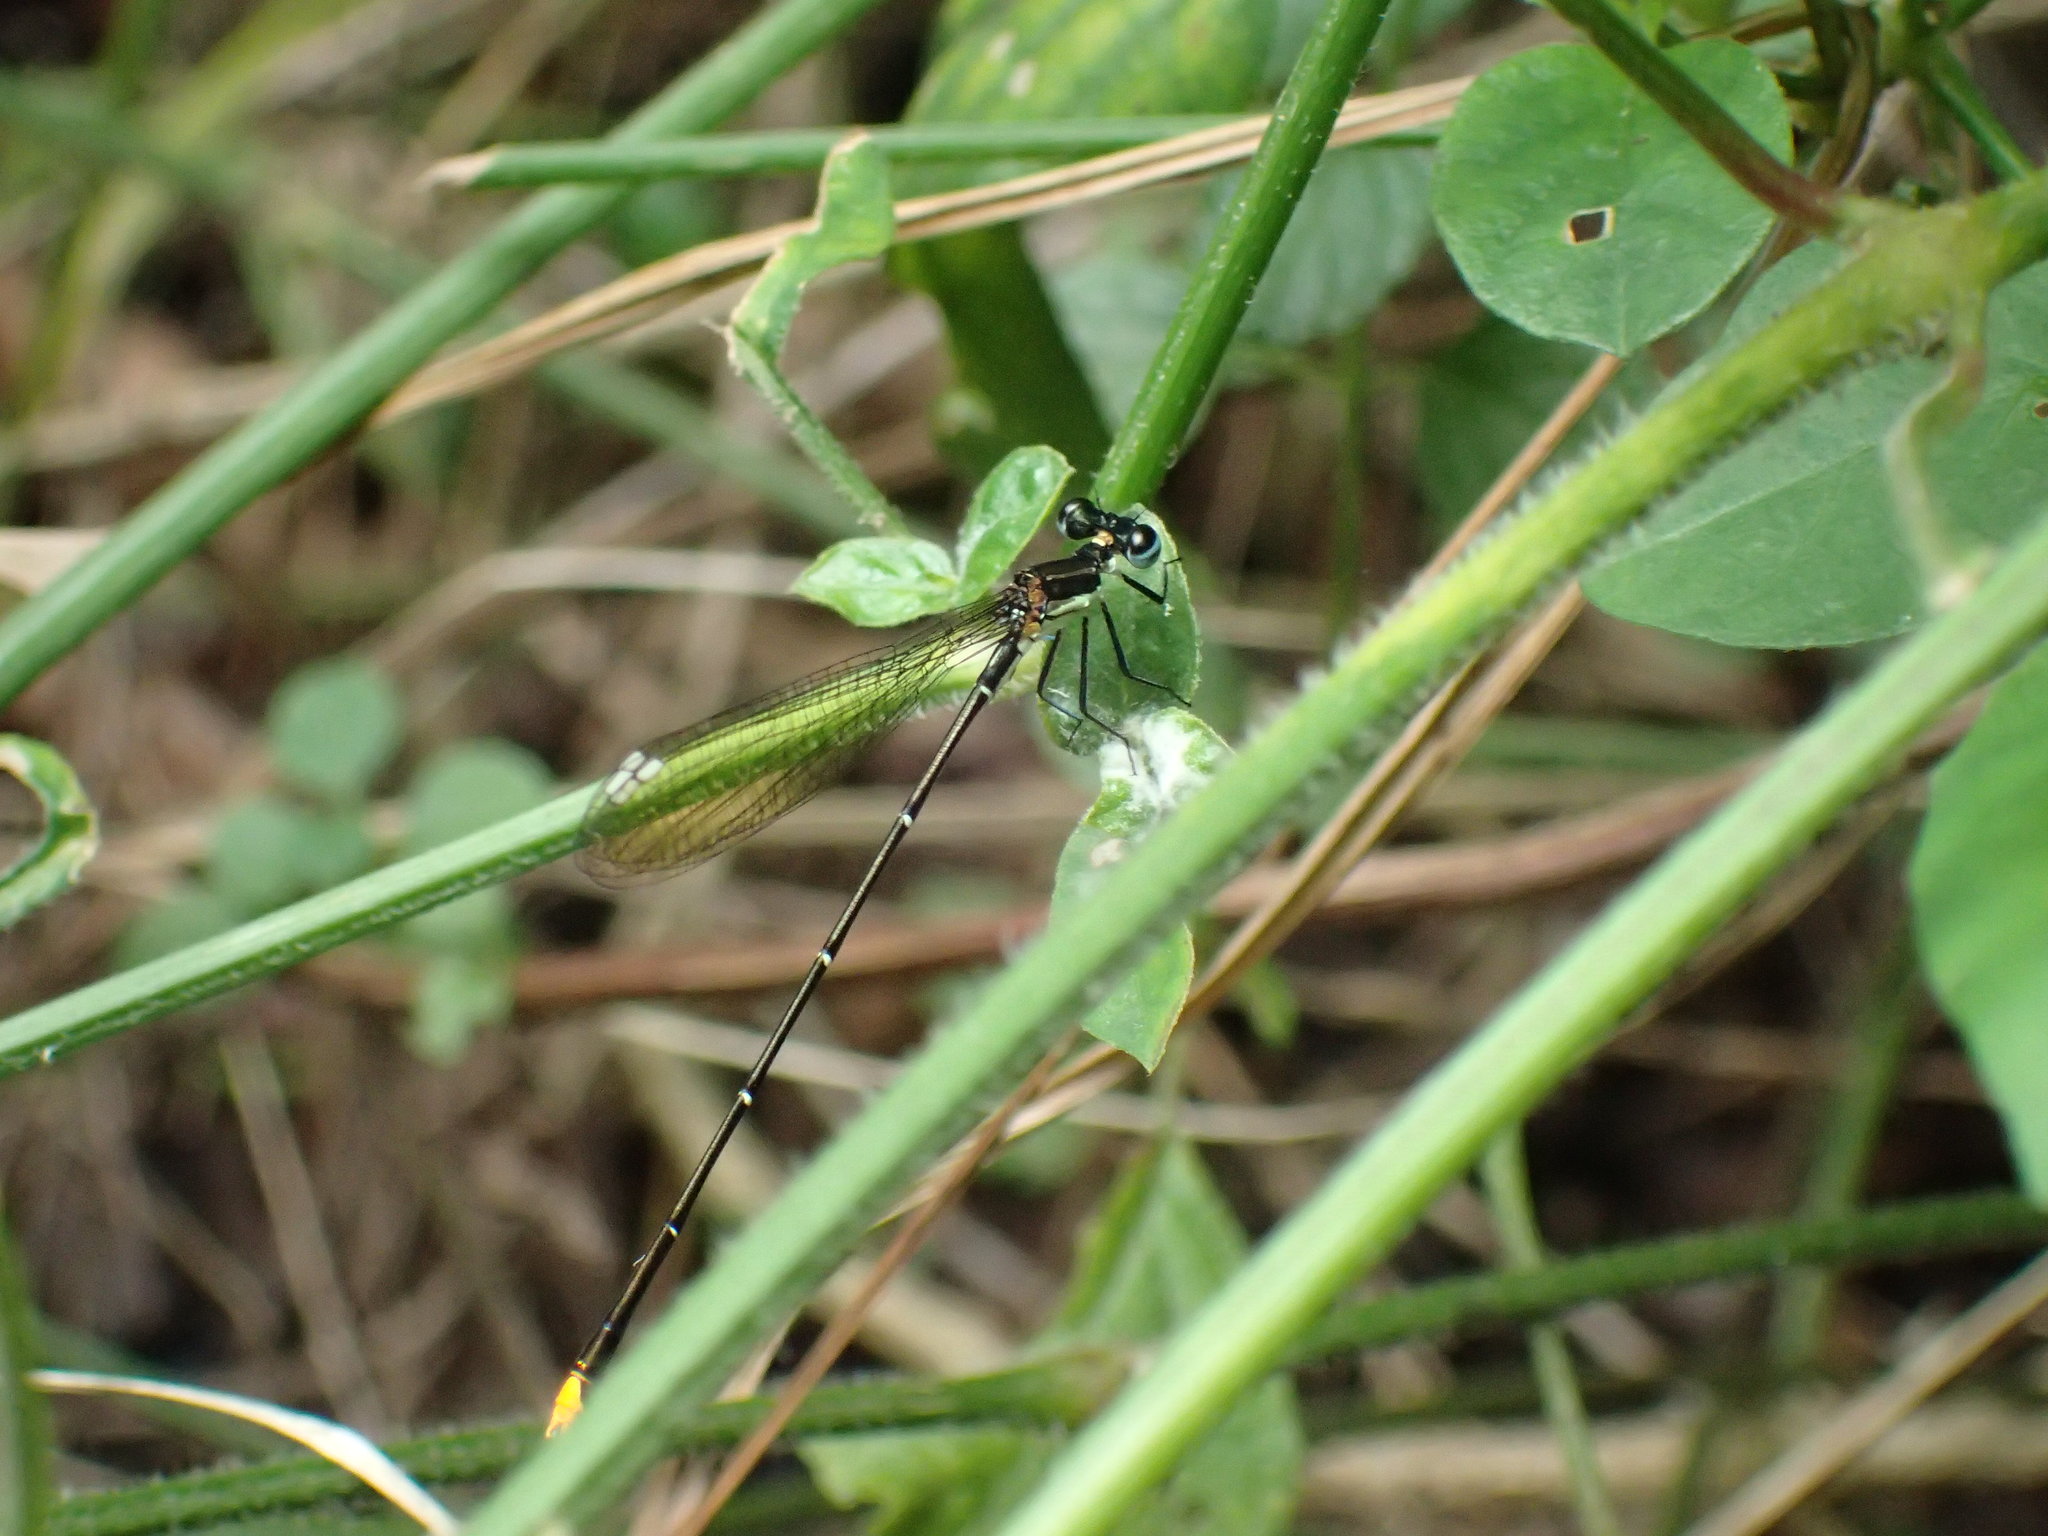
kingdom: Animalia
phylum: Arthropoda
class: Insecta
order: Odonata
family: Platycnemididae
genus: Allocnemis
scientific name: Allocnemis leucosticta
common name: Goldtail
